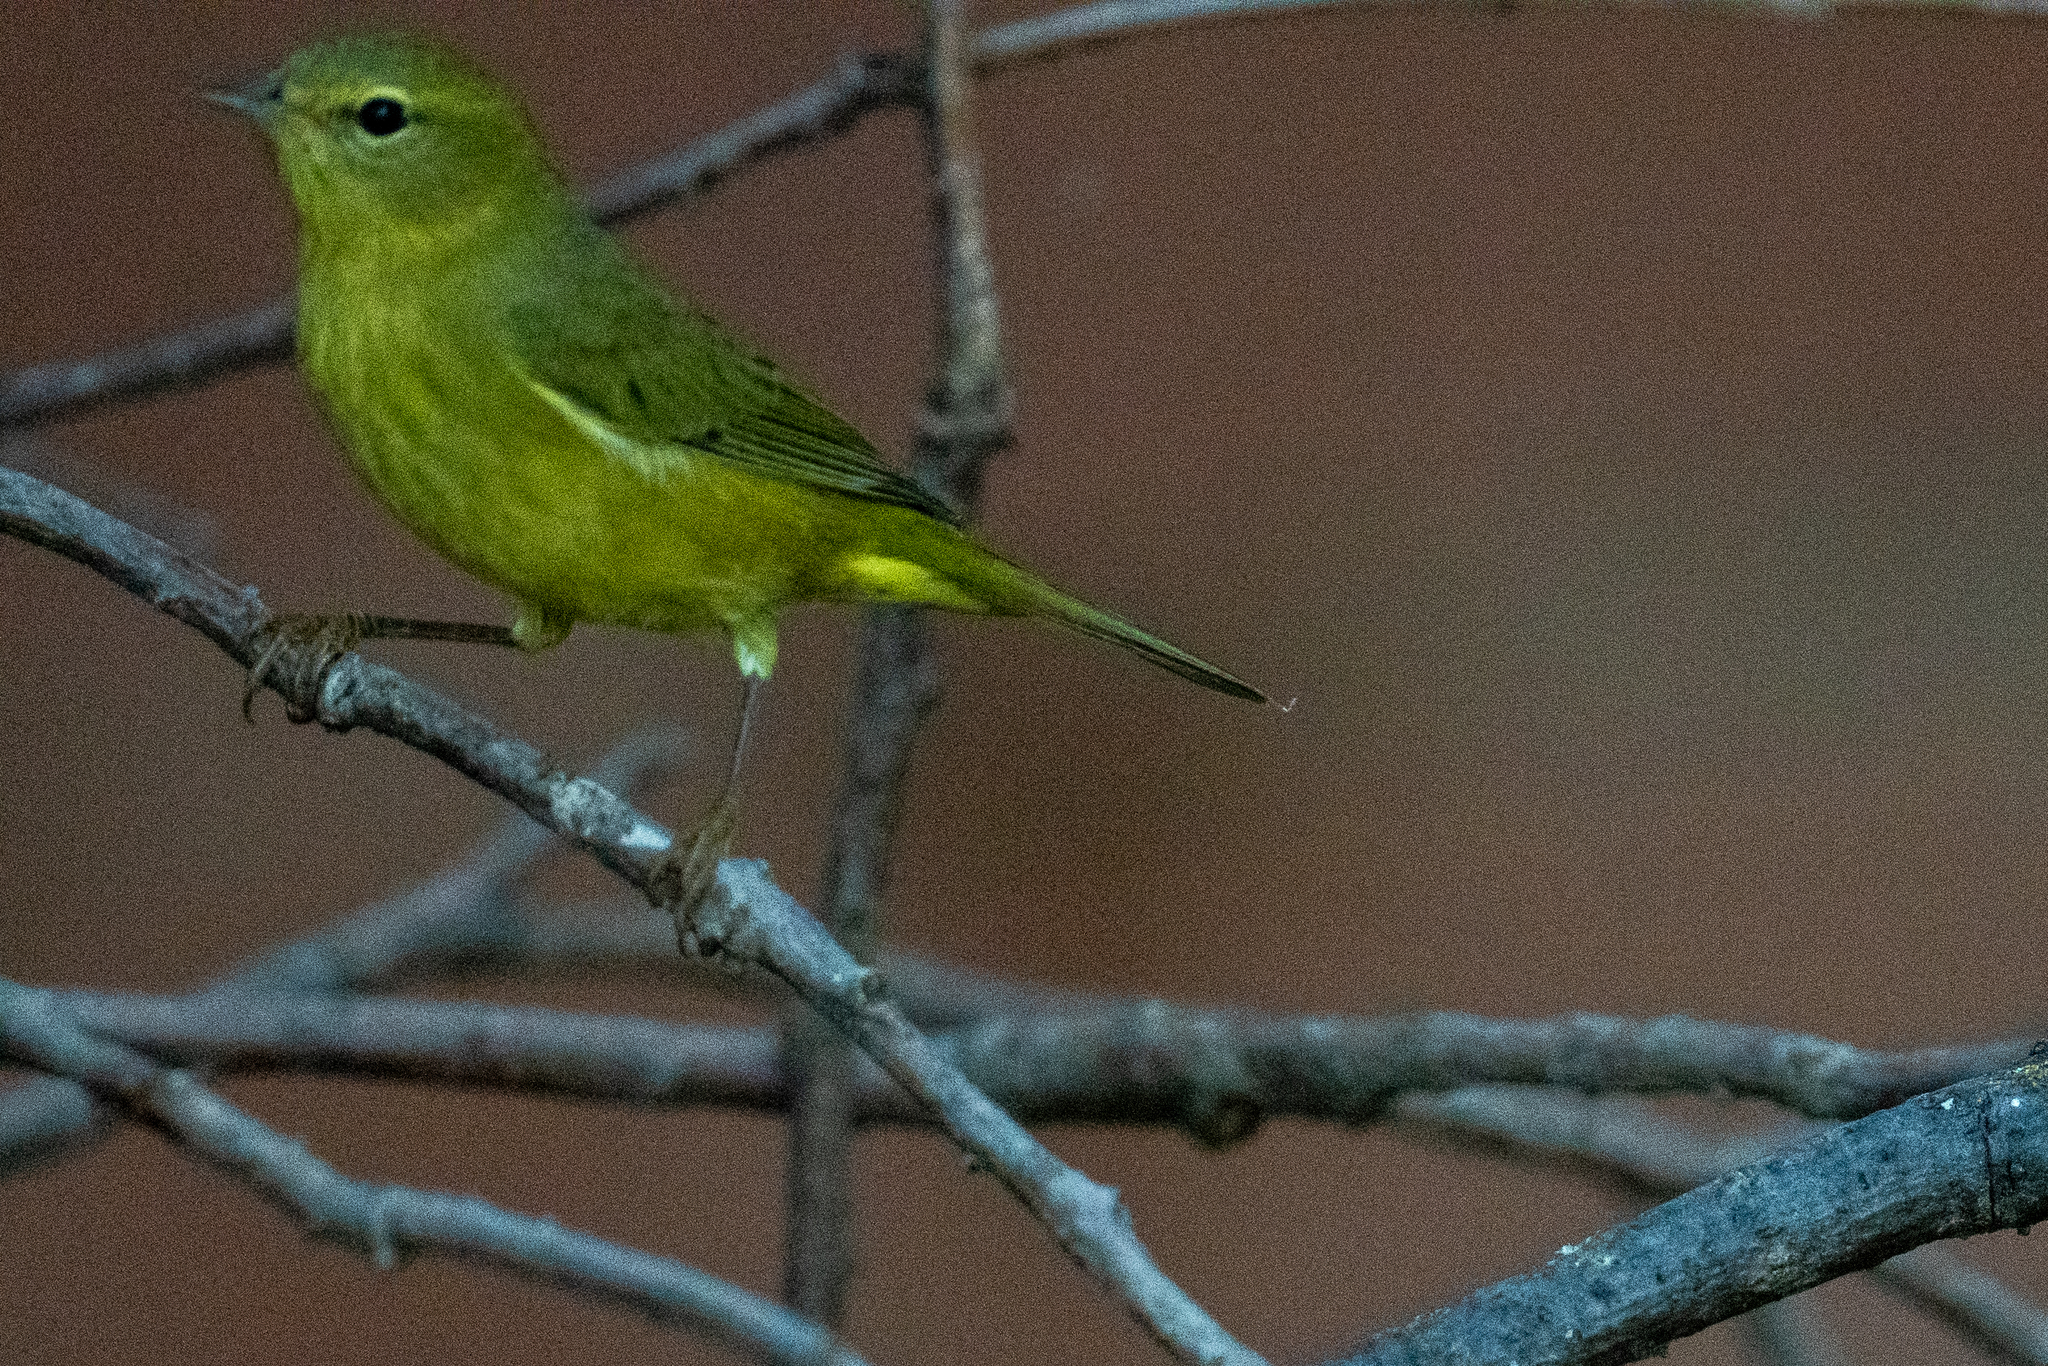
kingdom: Animalia
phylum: Chordata
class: Aves
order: Passeriformes
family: Parulidae
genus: Leiothlypis
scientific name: Leiothlypis celata
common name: Orange-crowned warbler
